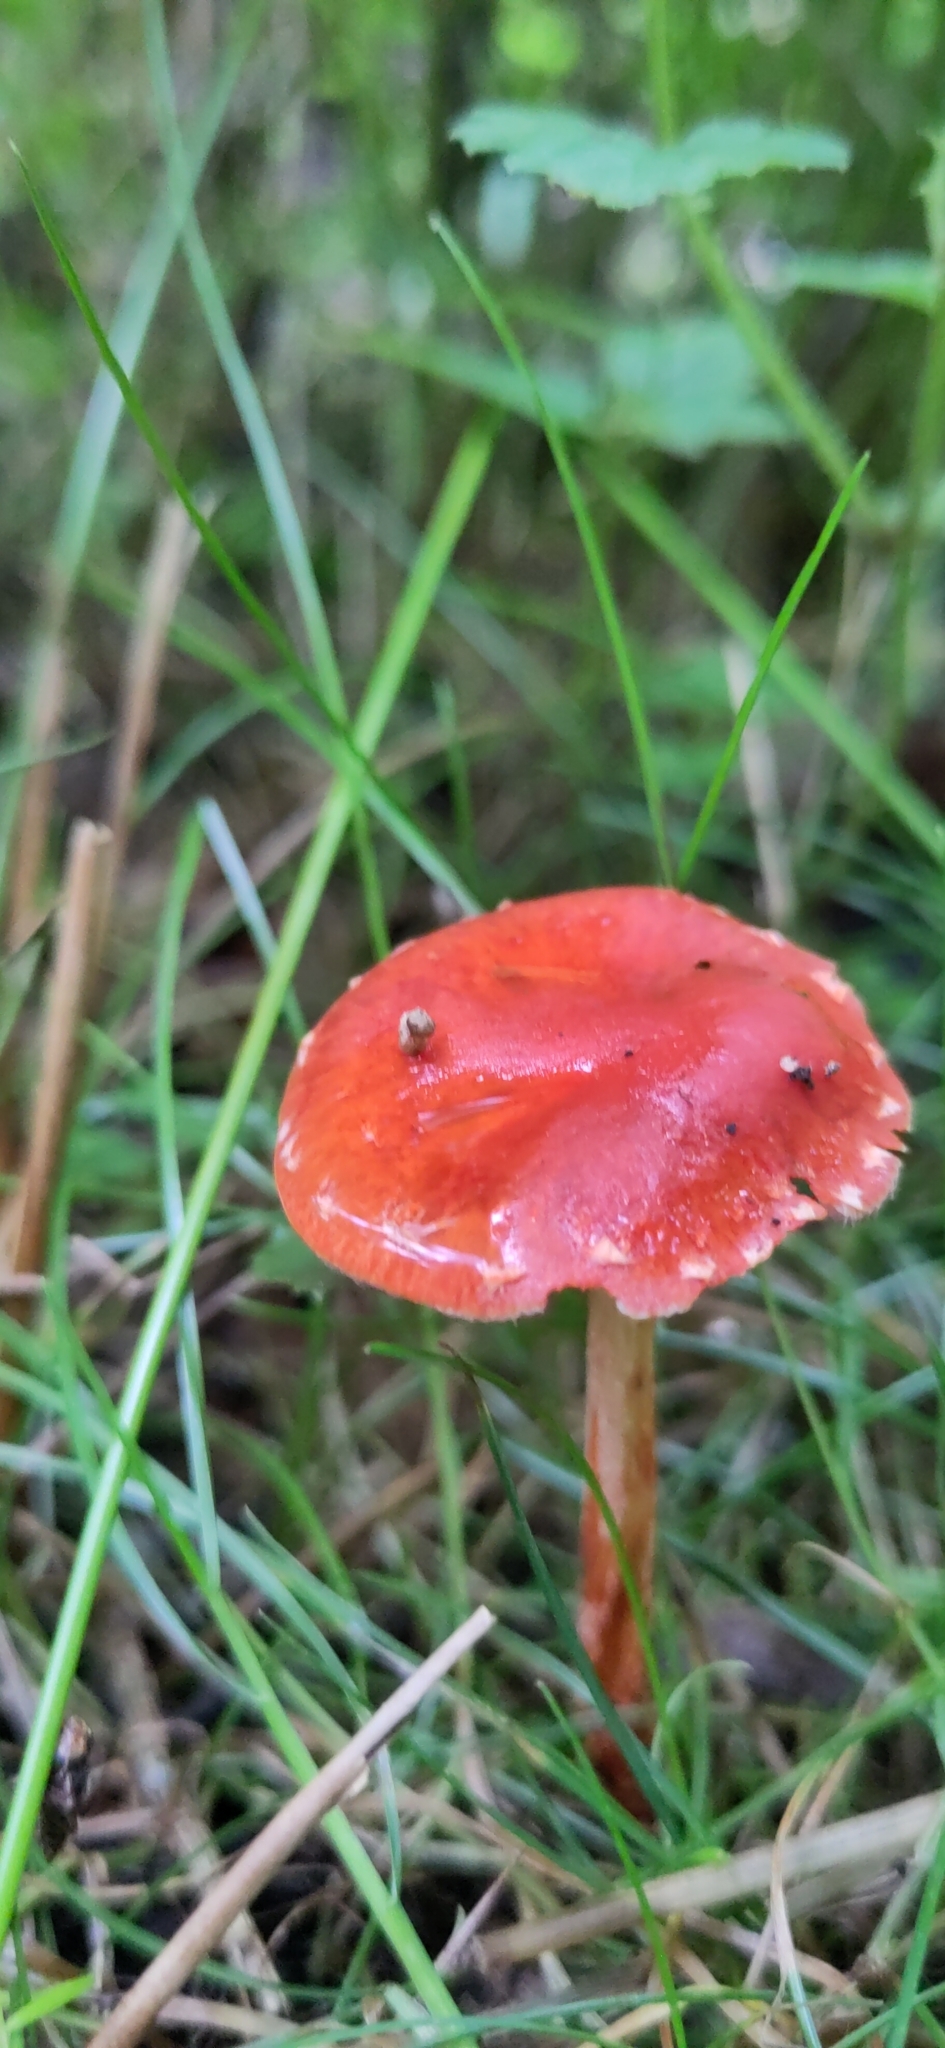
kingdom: Fungi
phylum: Basidiomycota
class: Agaricomycetes
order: Agaricales
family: Strophariaceae
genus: Leratiomyces
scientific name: Leratiomyces ceres
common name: Redlead roundhead
